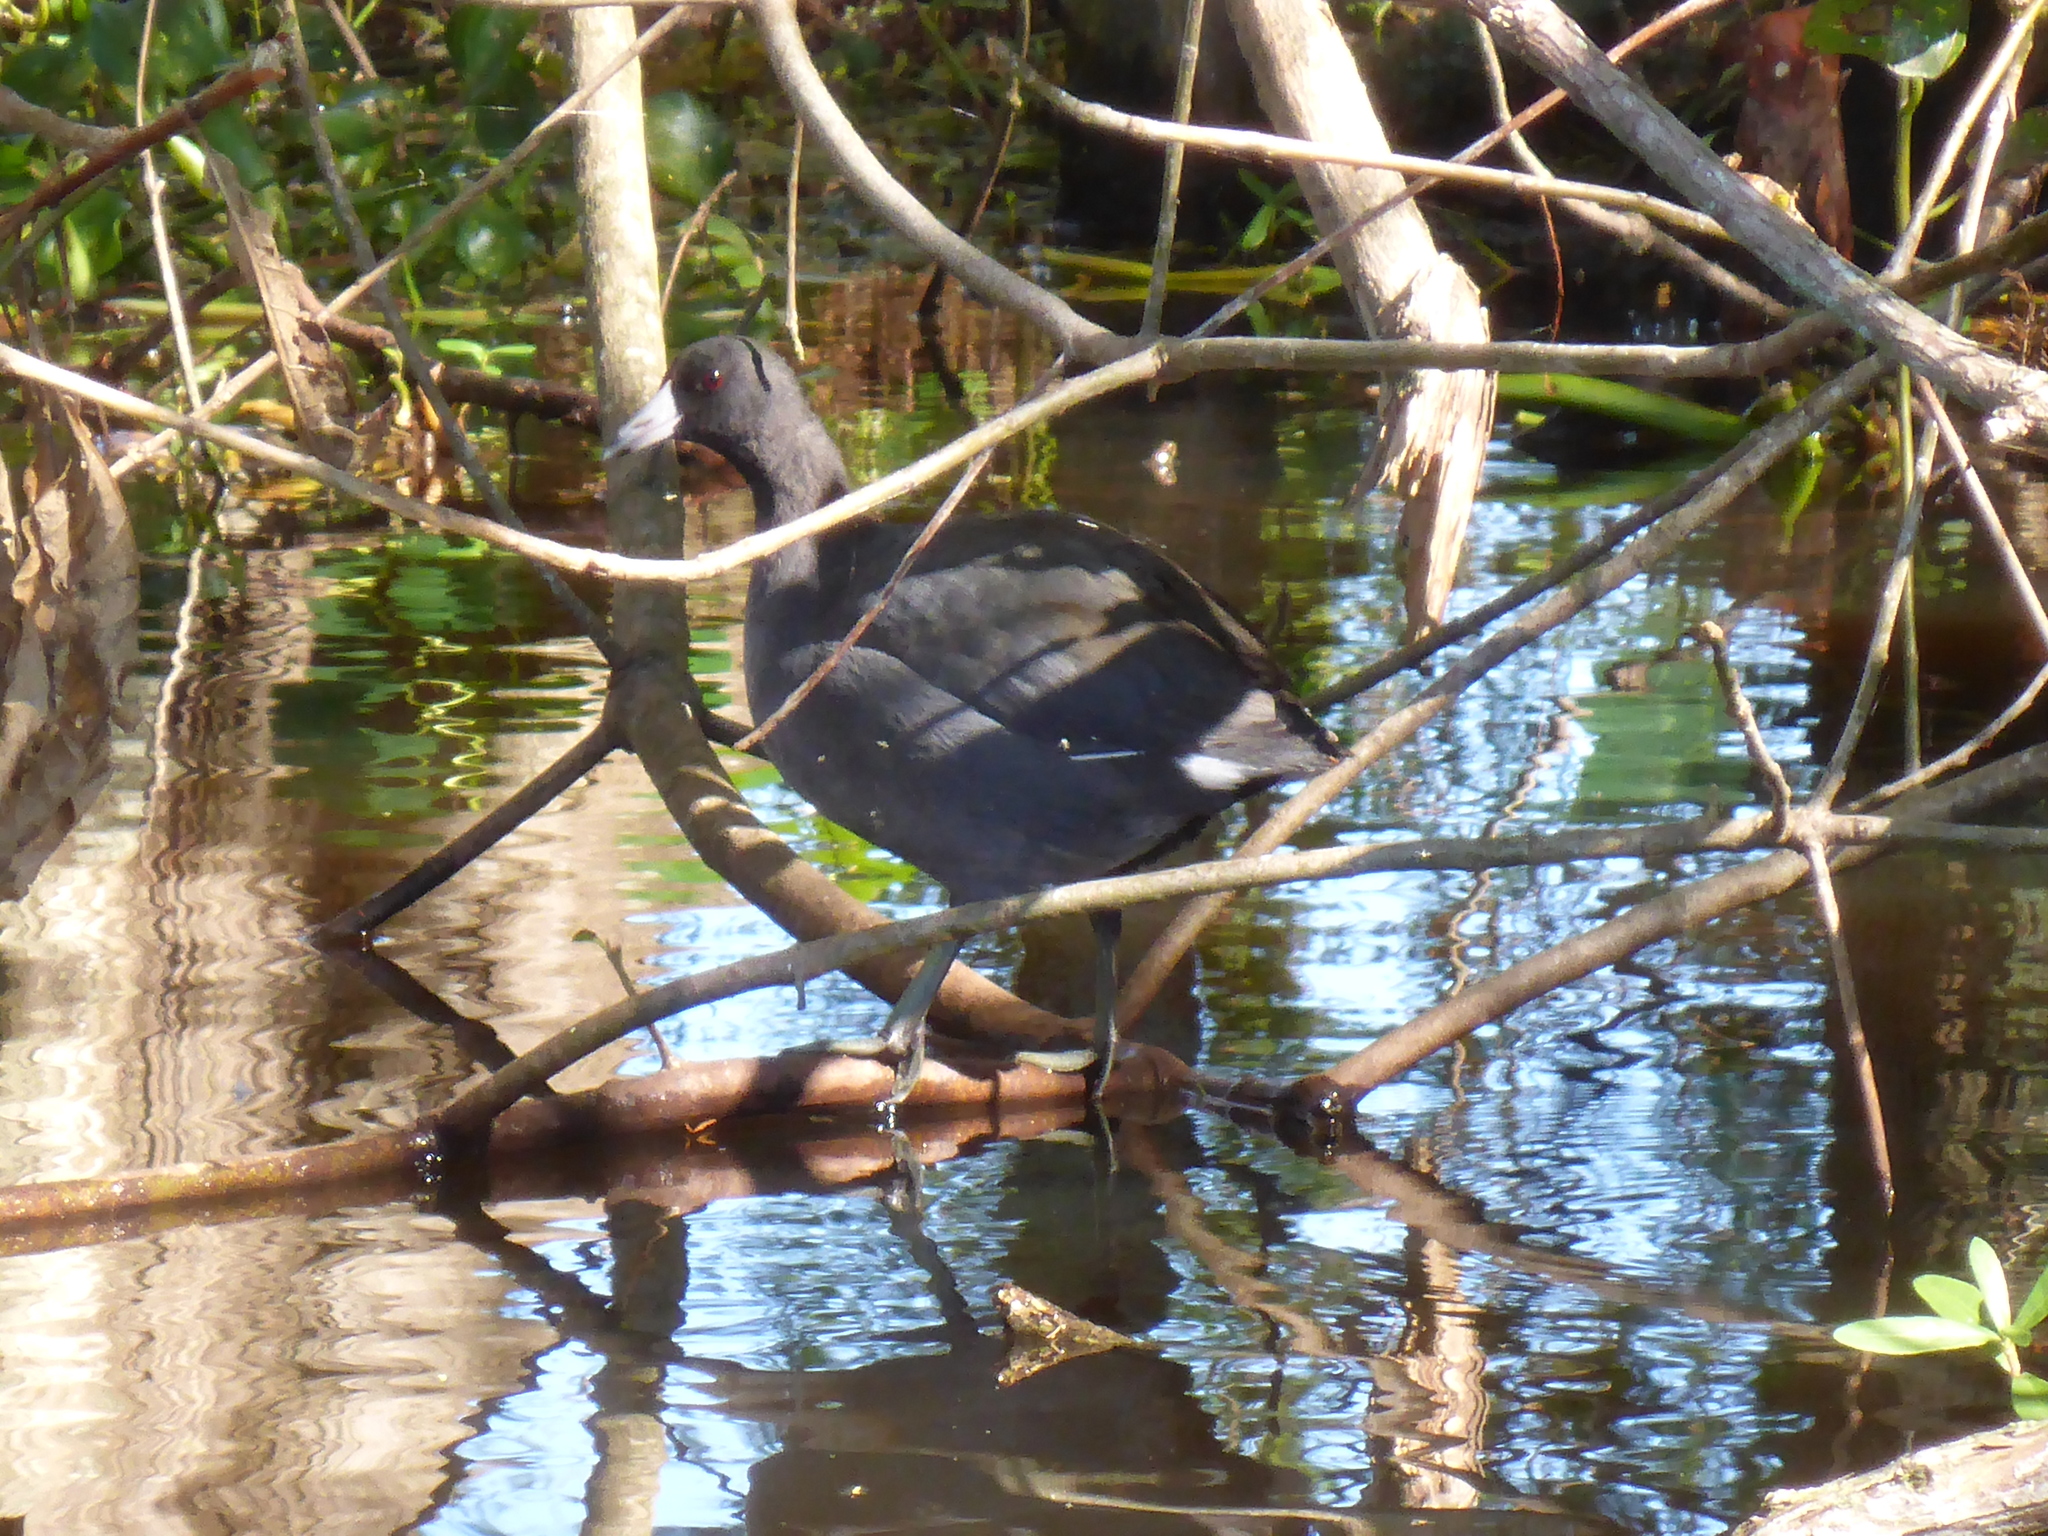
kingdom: Animalia
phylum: Chordata
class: Aves
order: Gruiformes
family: Rallidae
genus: Fulica
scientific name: Fulica americana
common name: American coot
